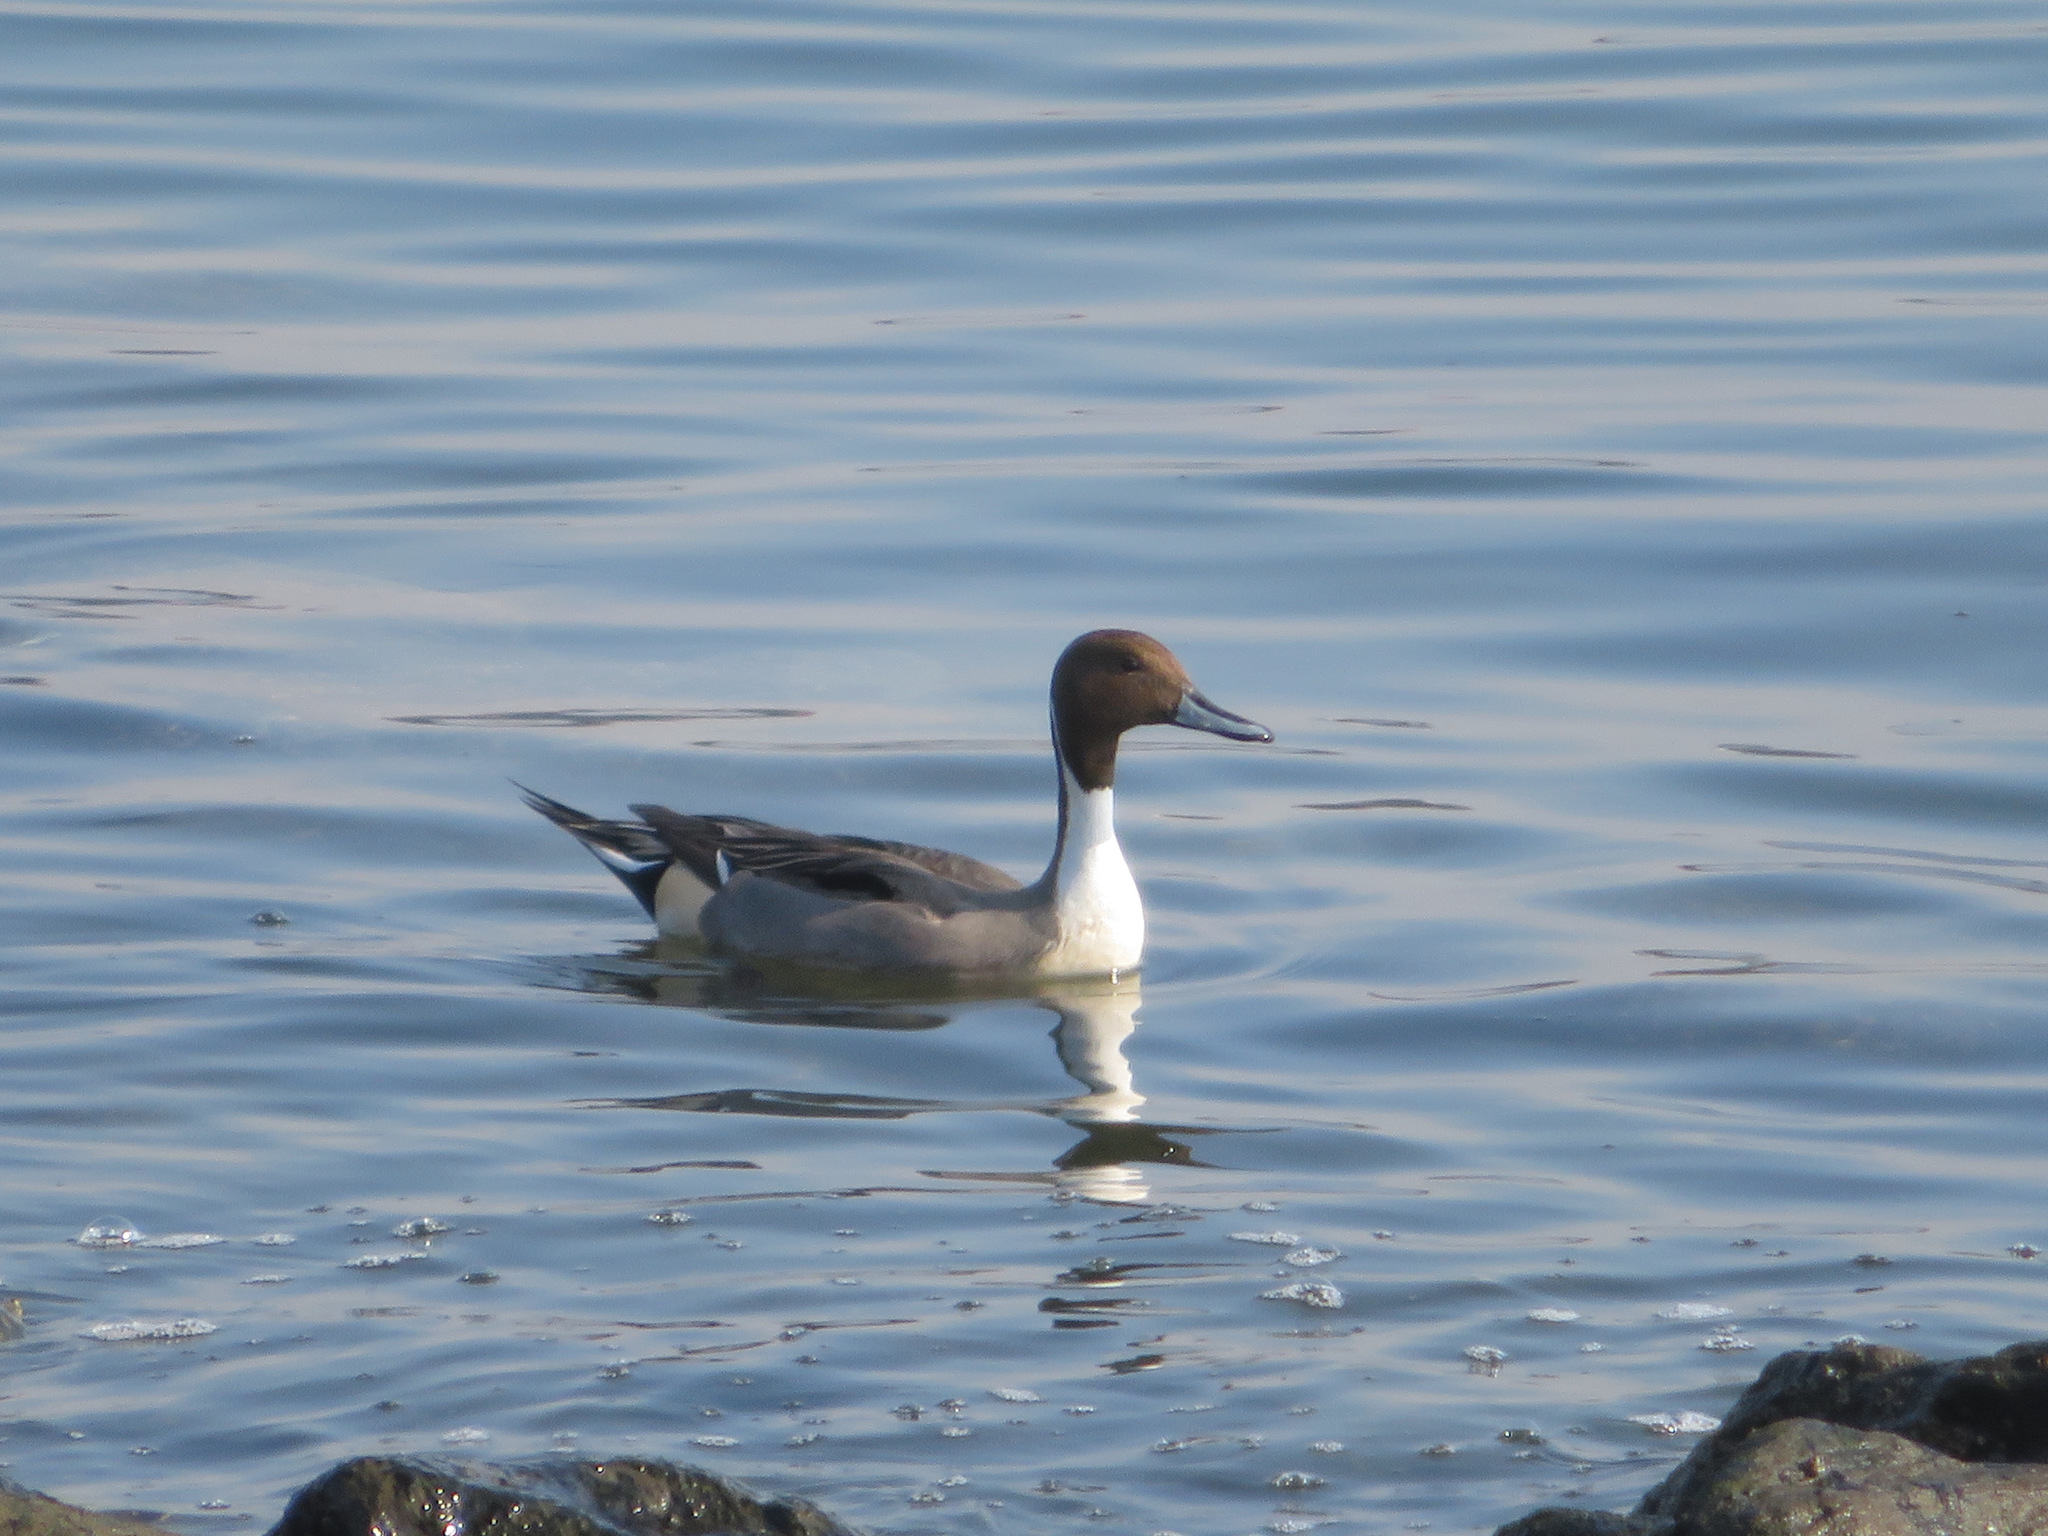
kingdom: Animalia
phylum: Chordata
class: Aves
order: Anseriformes
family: Anatidae
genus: Anas
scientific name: Anas acuta
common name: Northern pintail
